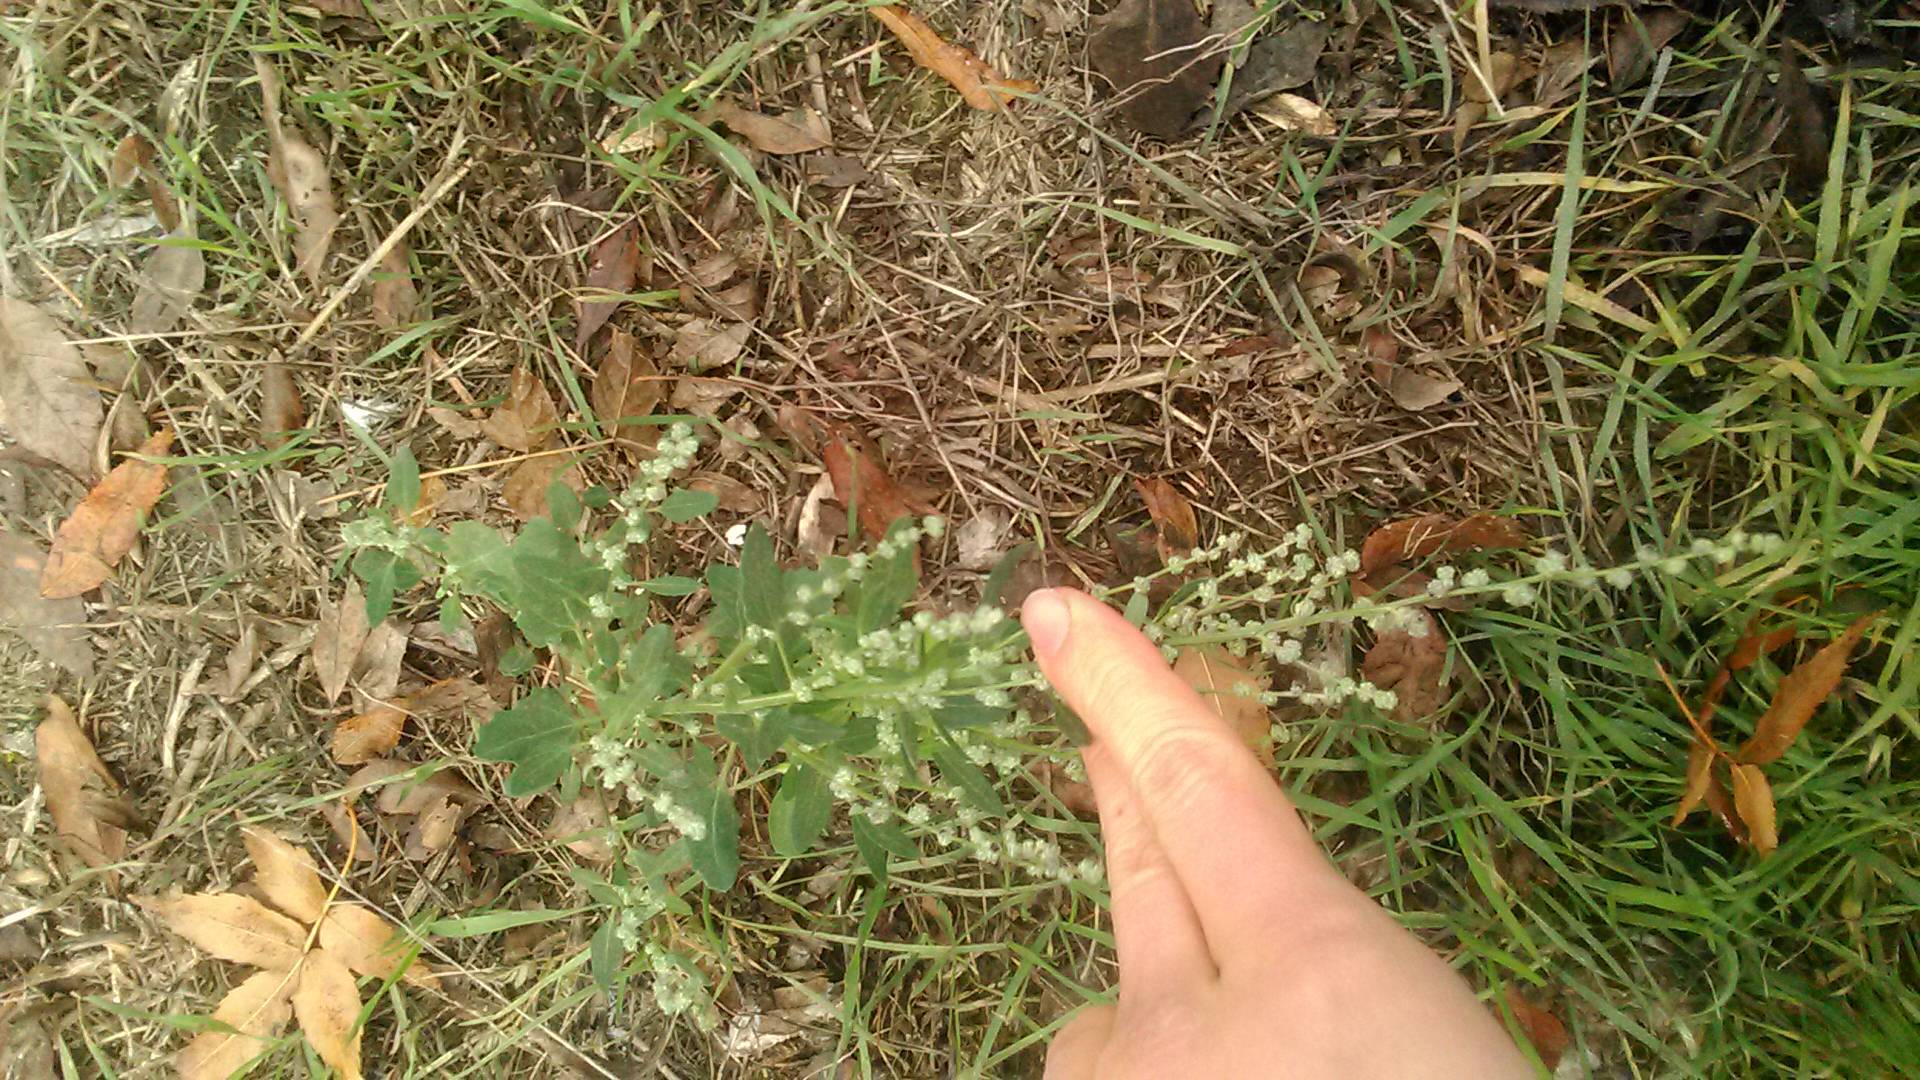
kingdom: Plantae
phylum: Tracheophyta
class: Magnoliopsida
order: Caryophyllales
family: Amaranthaceae
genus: Chenopodium
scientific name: Chenopodium album
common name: Fat-hen
